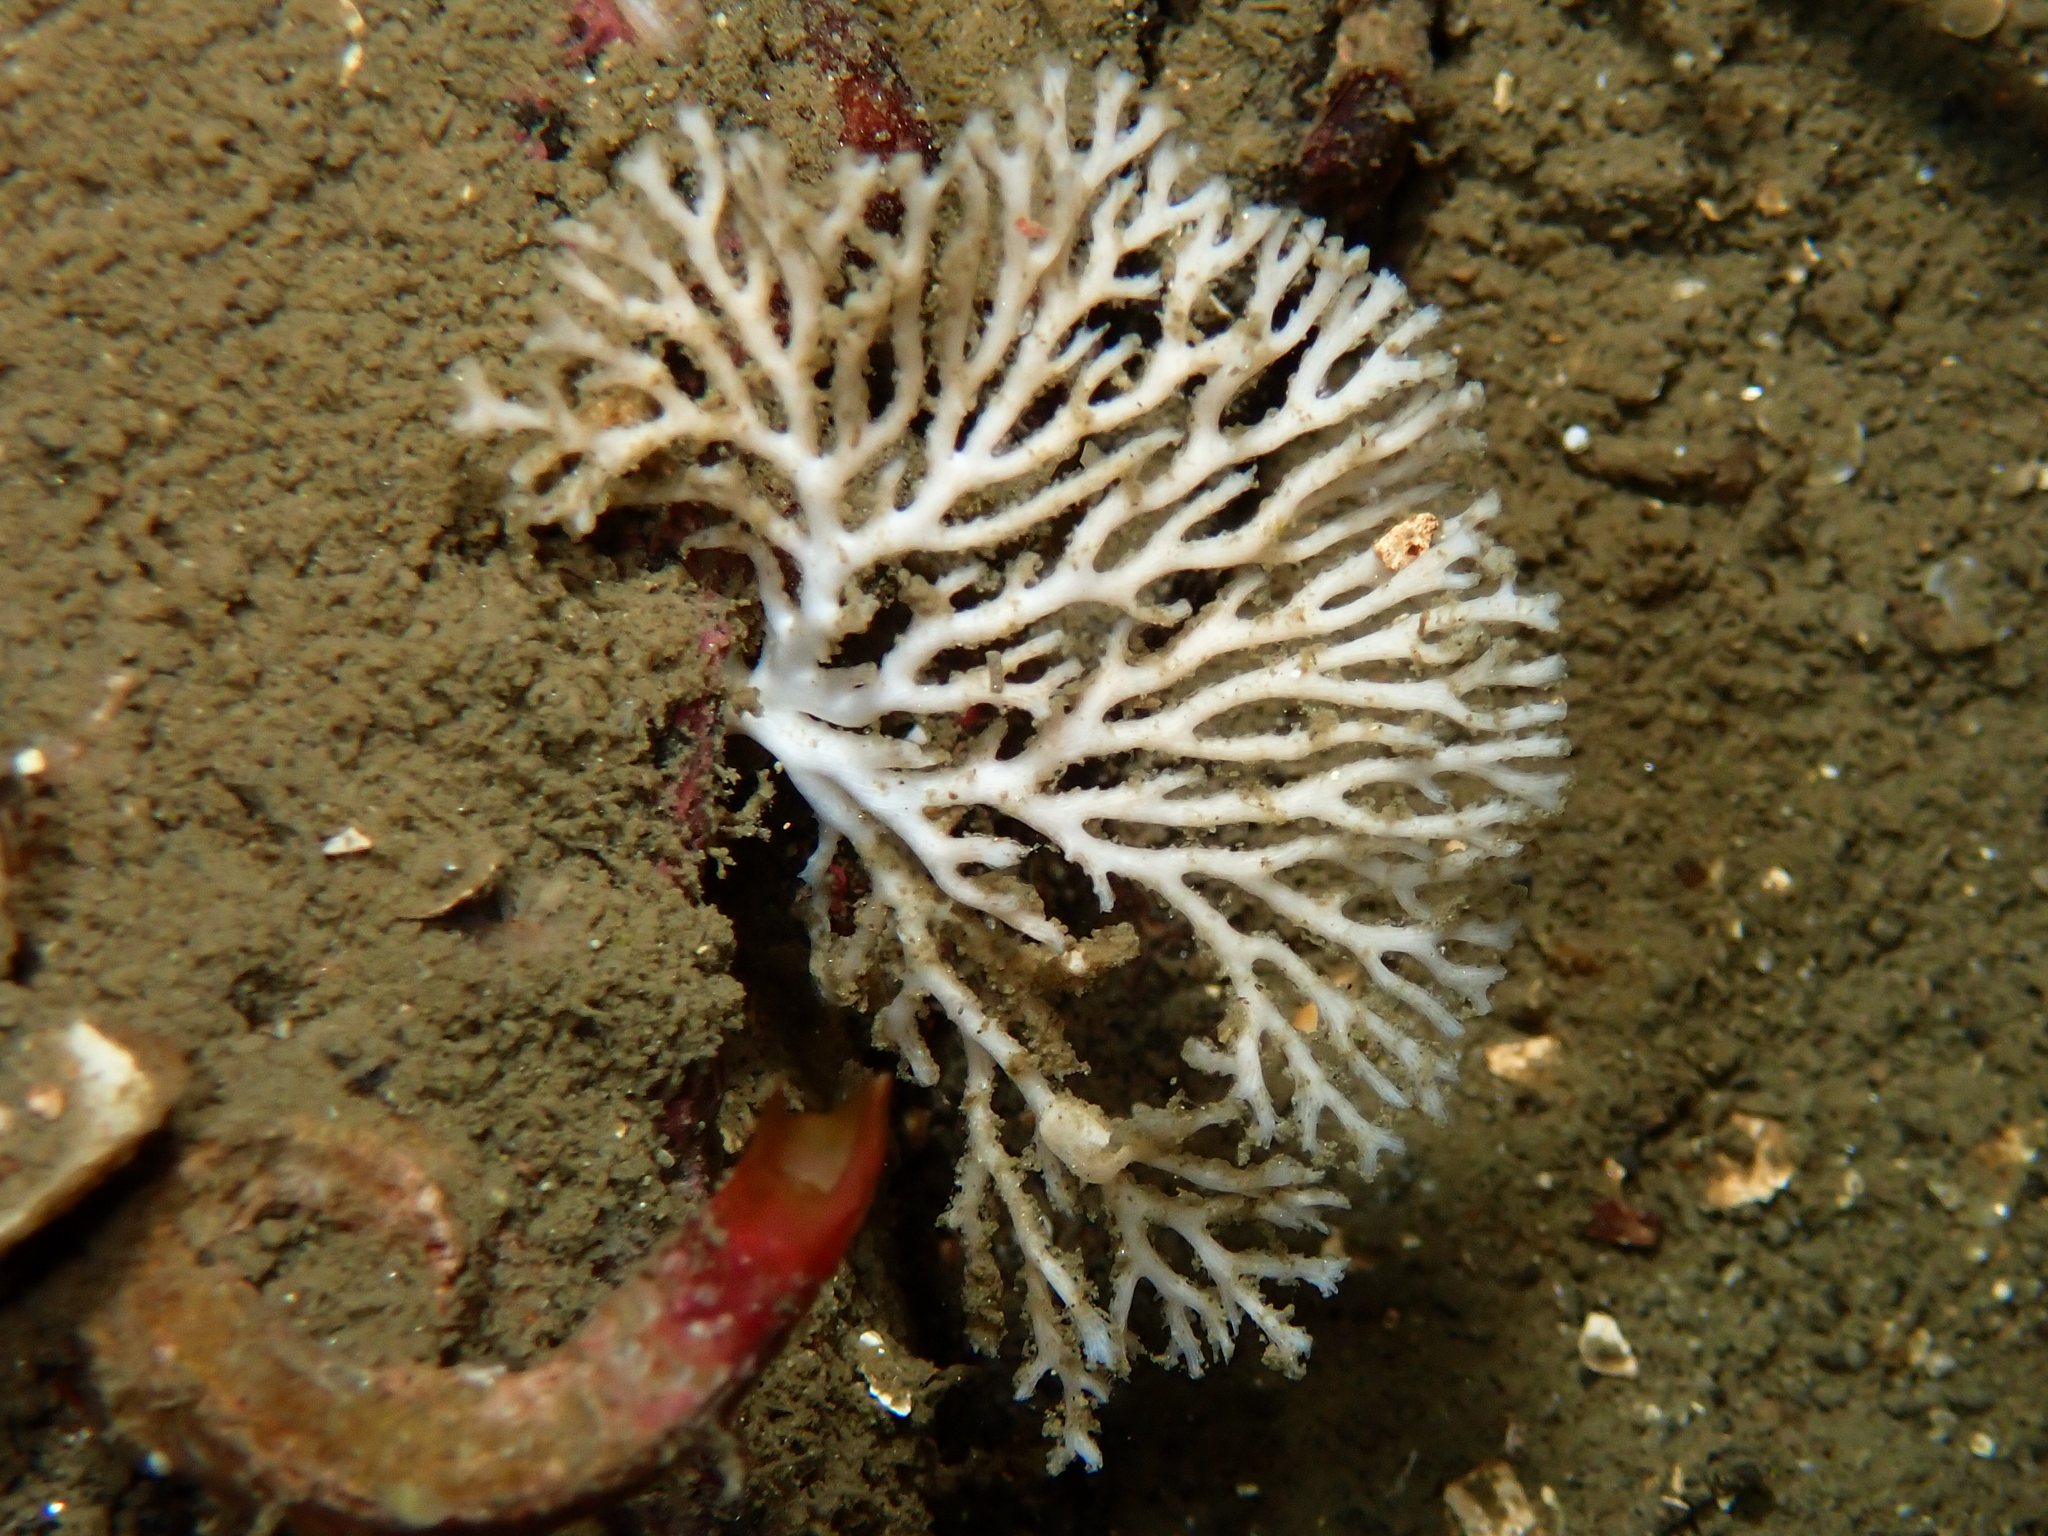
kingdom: Animalia
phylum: Bryozoa
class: Stenolaemata
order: Cyclostomatida
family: Horneridae
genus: Hornera
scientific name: Hornera lichenoides
